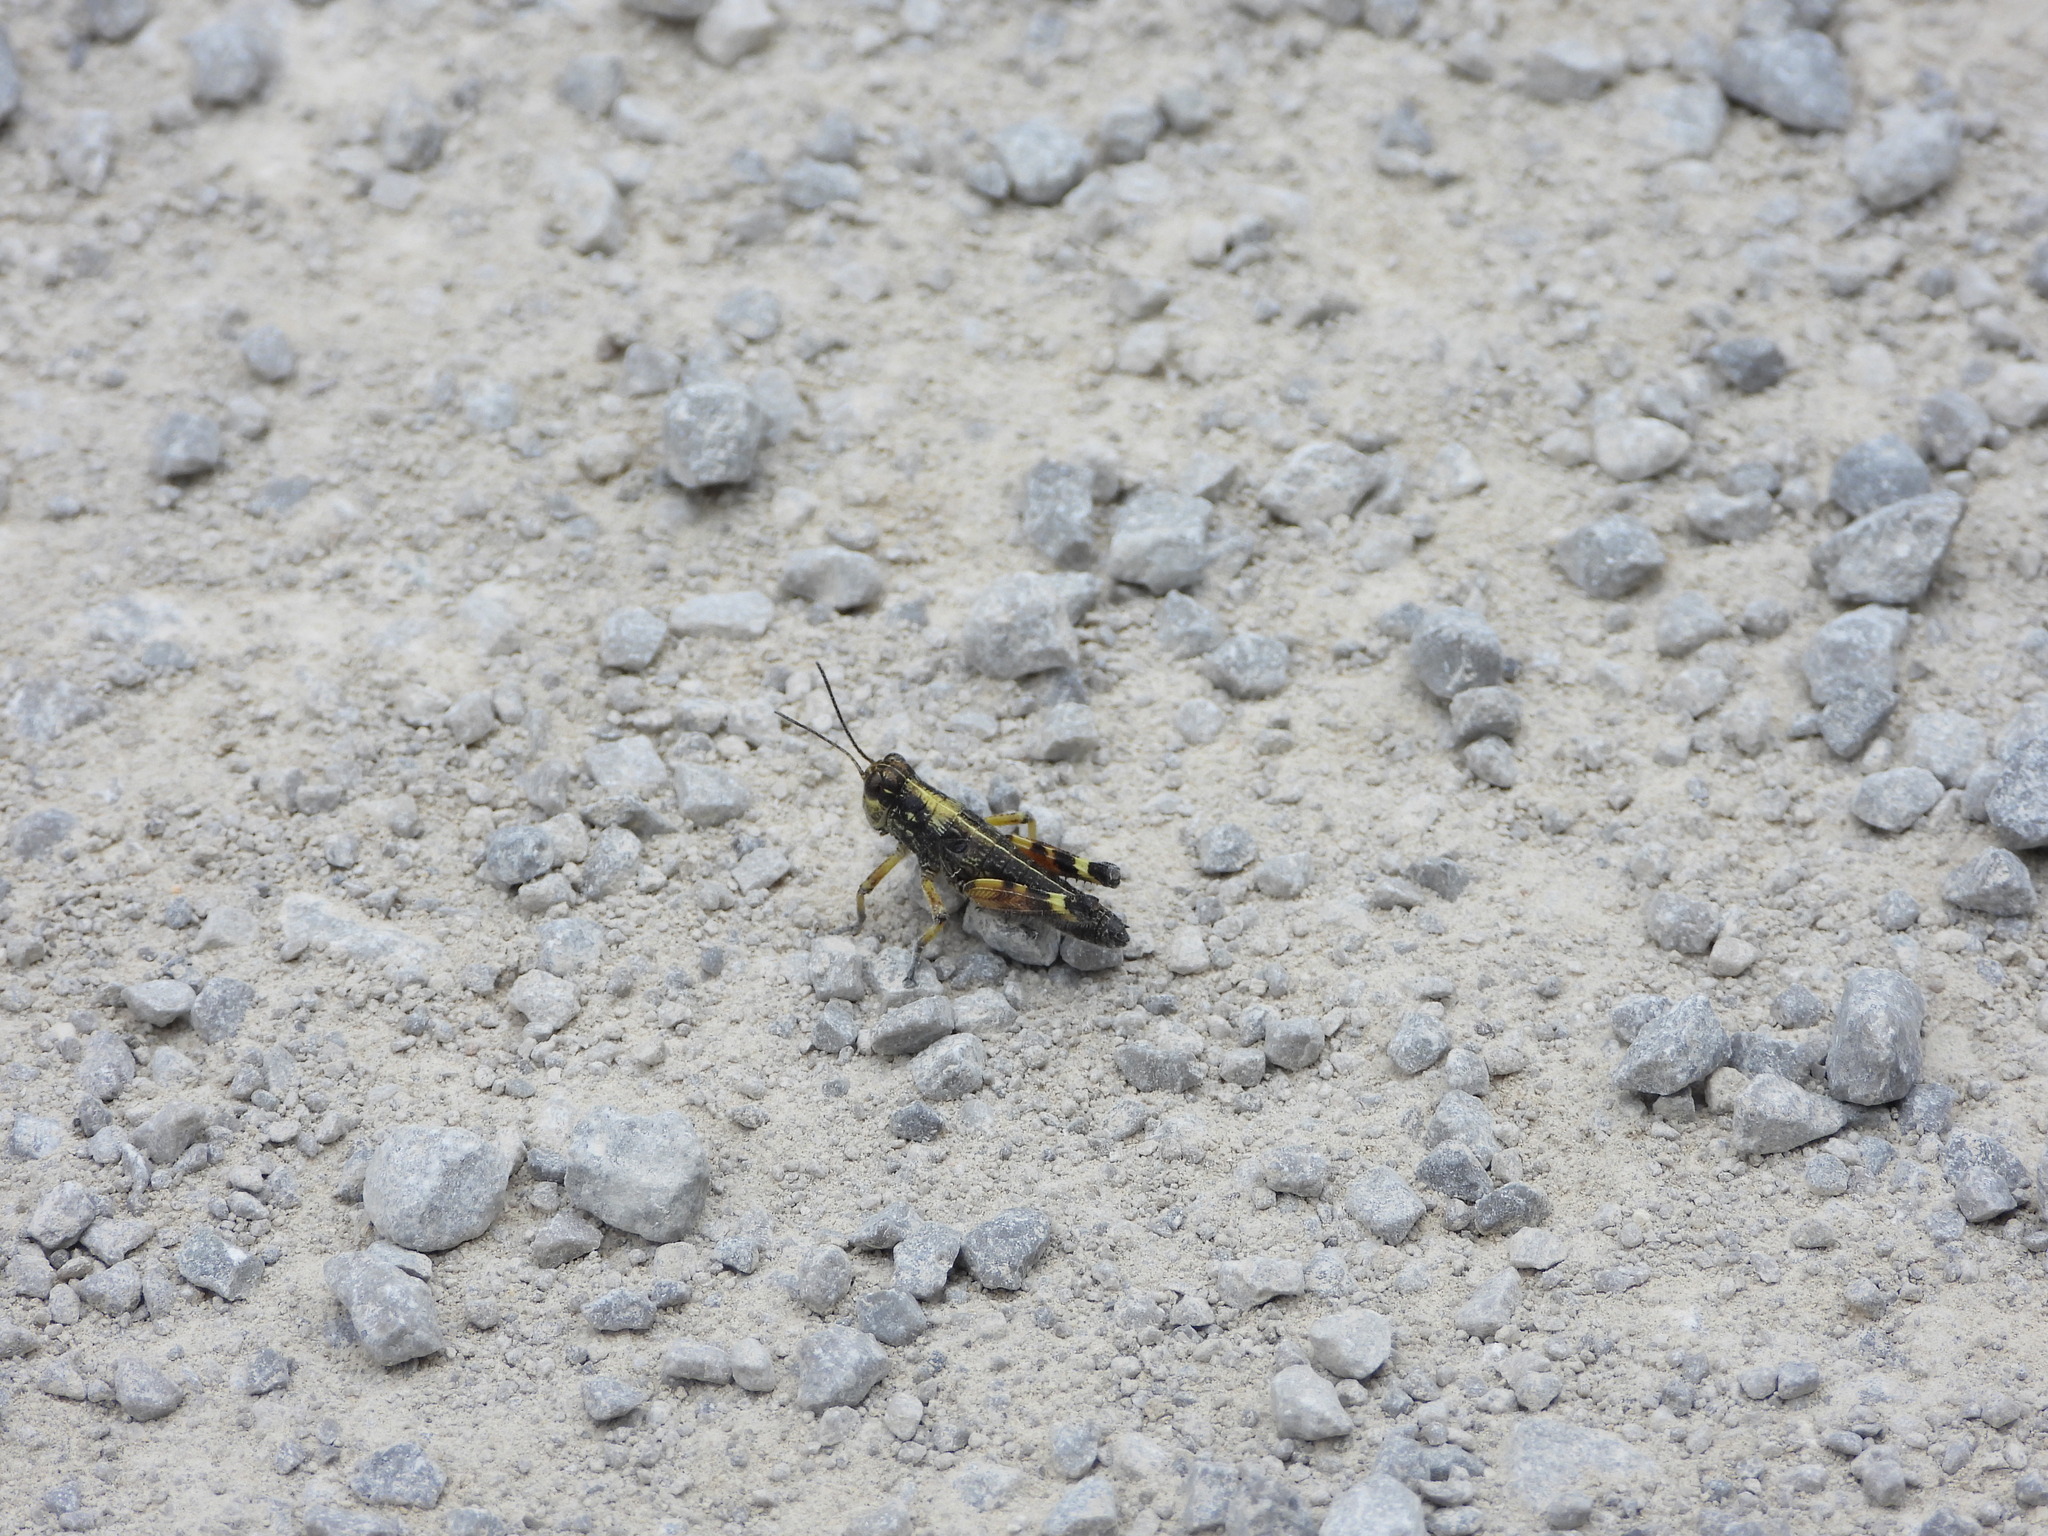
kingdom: Animalia
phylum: Arthropoda
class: Insecta
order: Orthoptera
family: Acrididae
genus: Dendrotettix
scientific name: Dendrotettix quercus
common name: Post oak grasshopper
